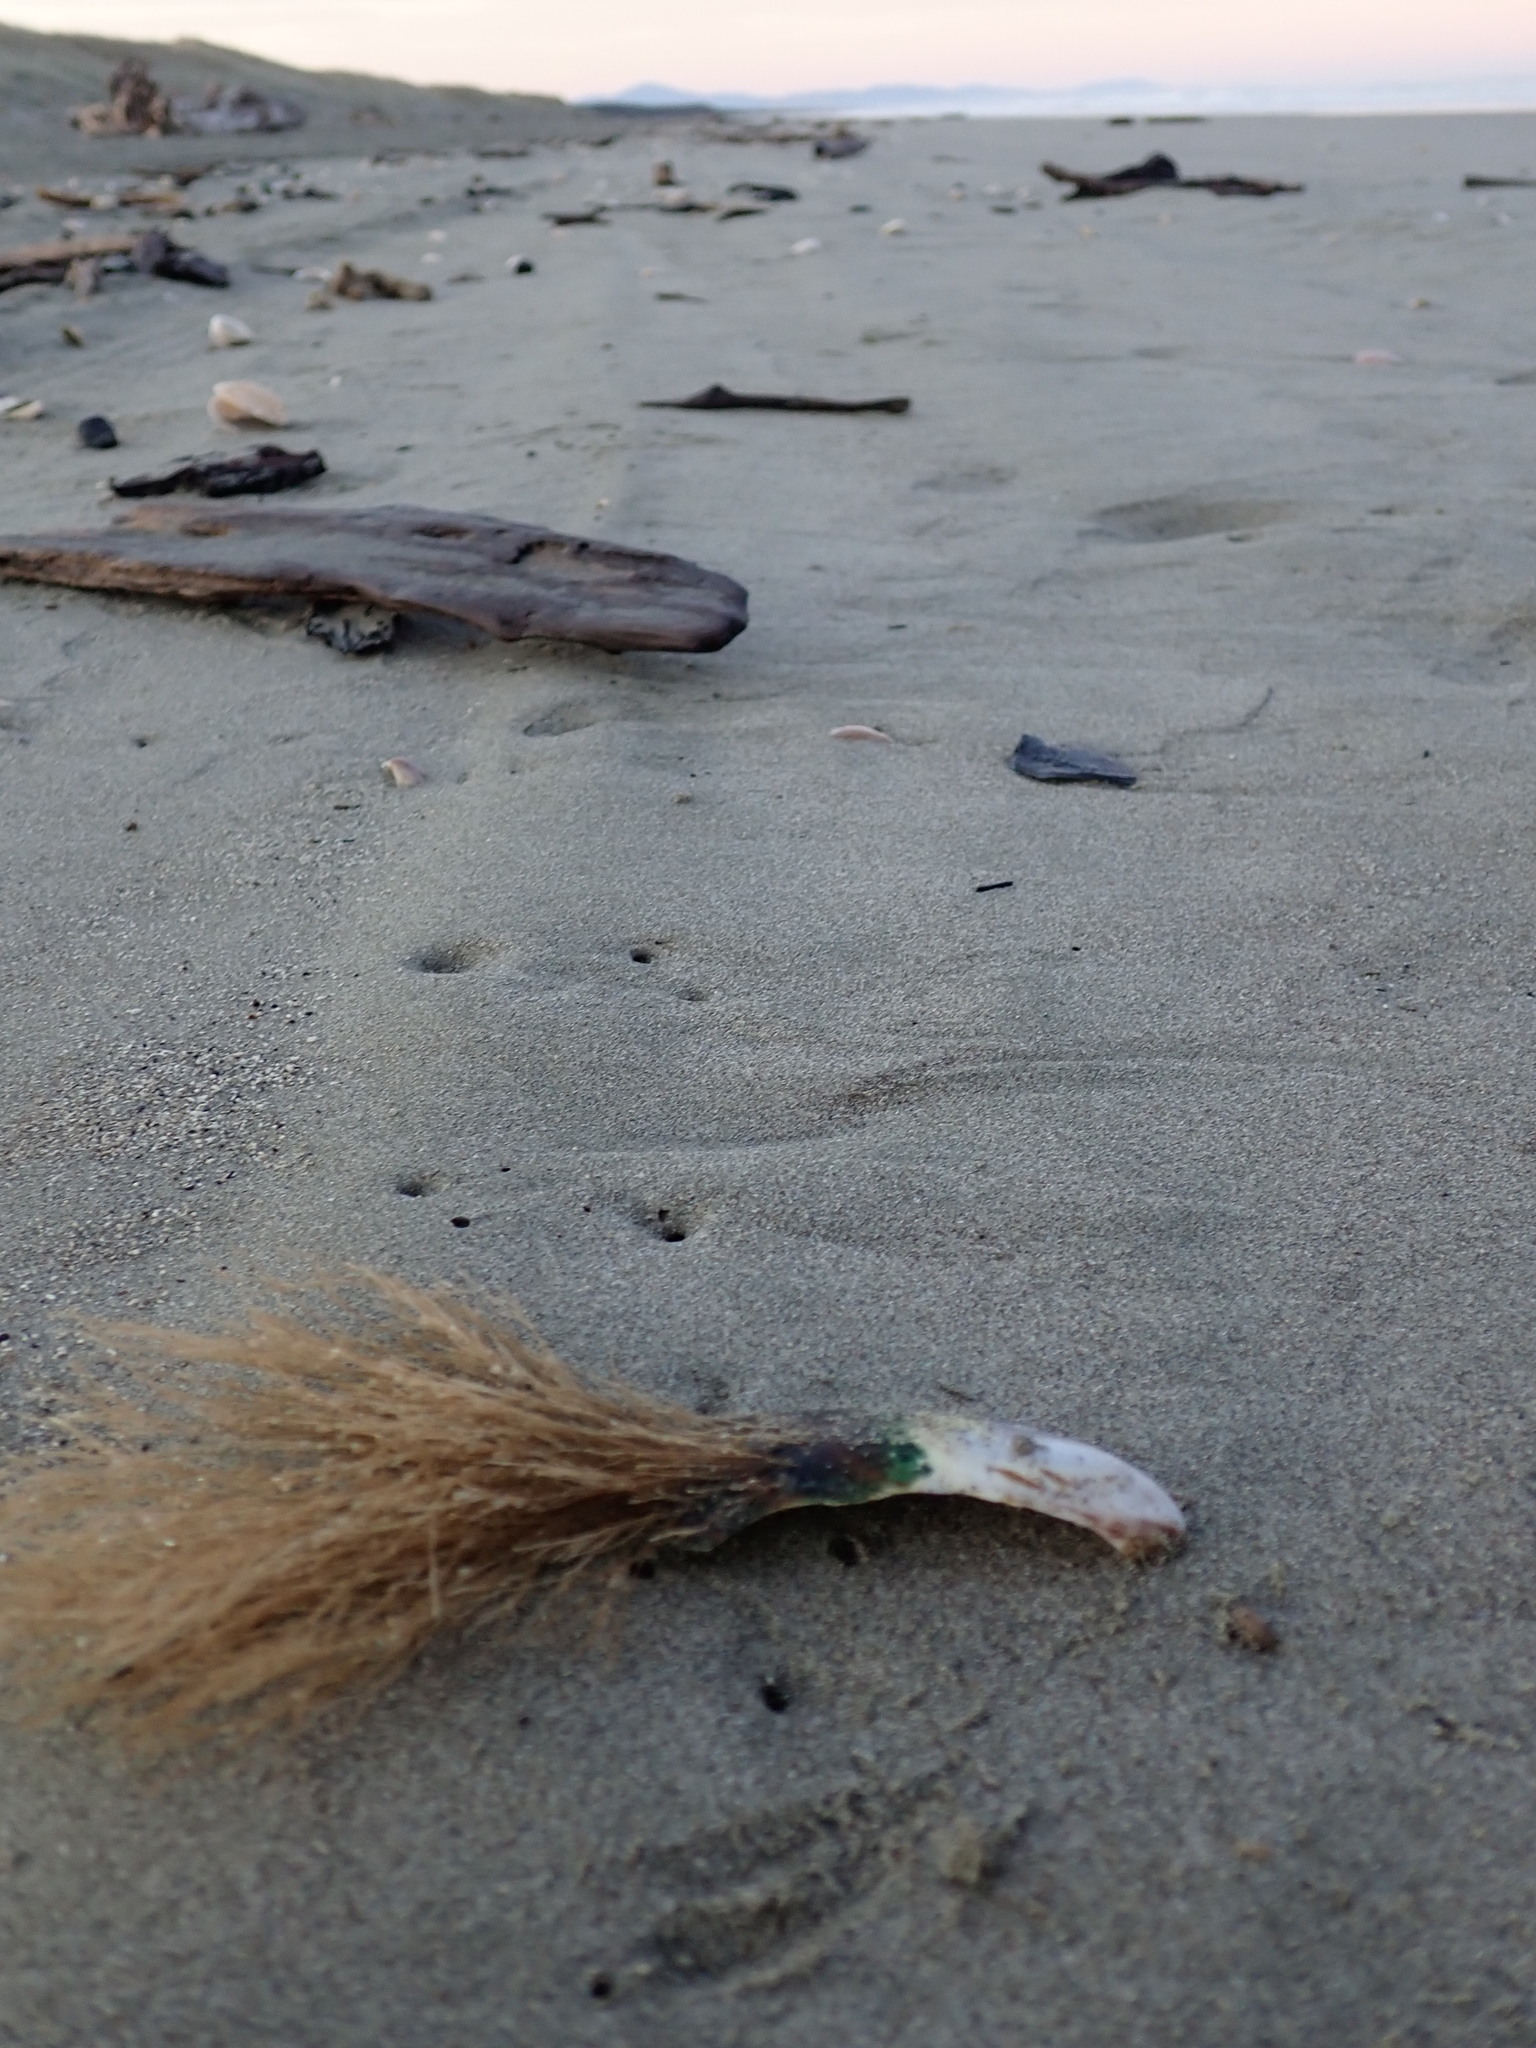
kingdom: Animalia
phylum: Cnidaria
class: Hydrozoa
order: Leptothecata
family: Sertulariidae
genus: Amphisbetia
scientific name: Amphisbetia bispinosa
